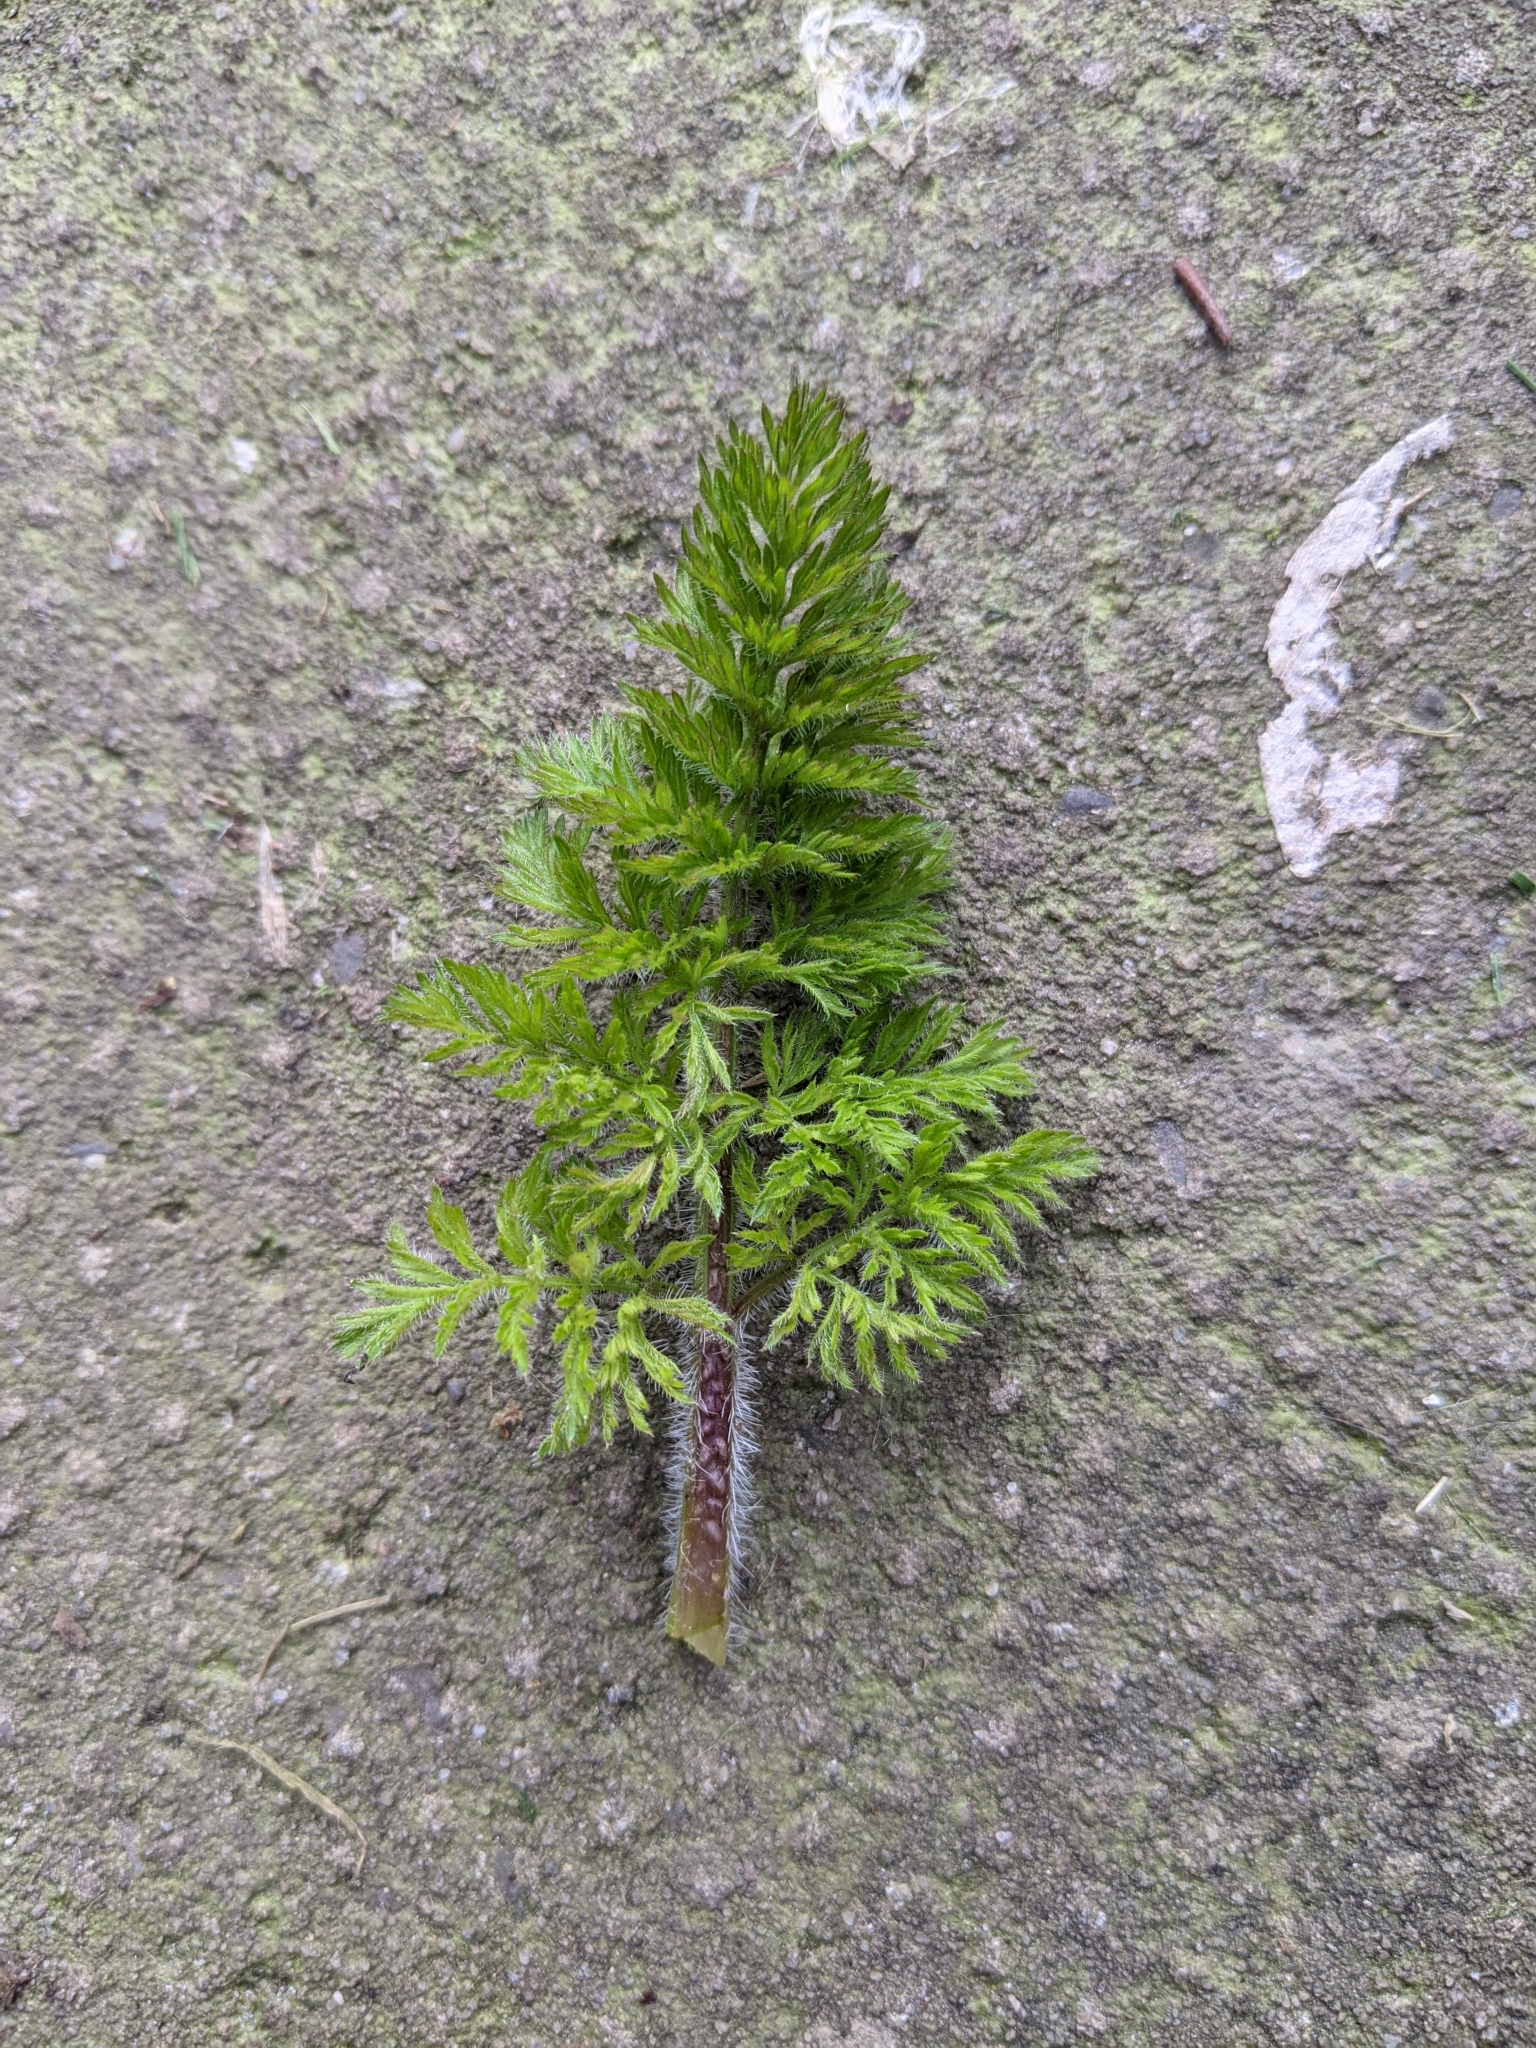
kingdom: Plantae
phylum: Tracheophyta
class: Magnoliopsida
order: Apiales
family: Apiaceae
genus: Daucus
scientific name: Daucus carota
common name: Wild carrot
